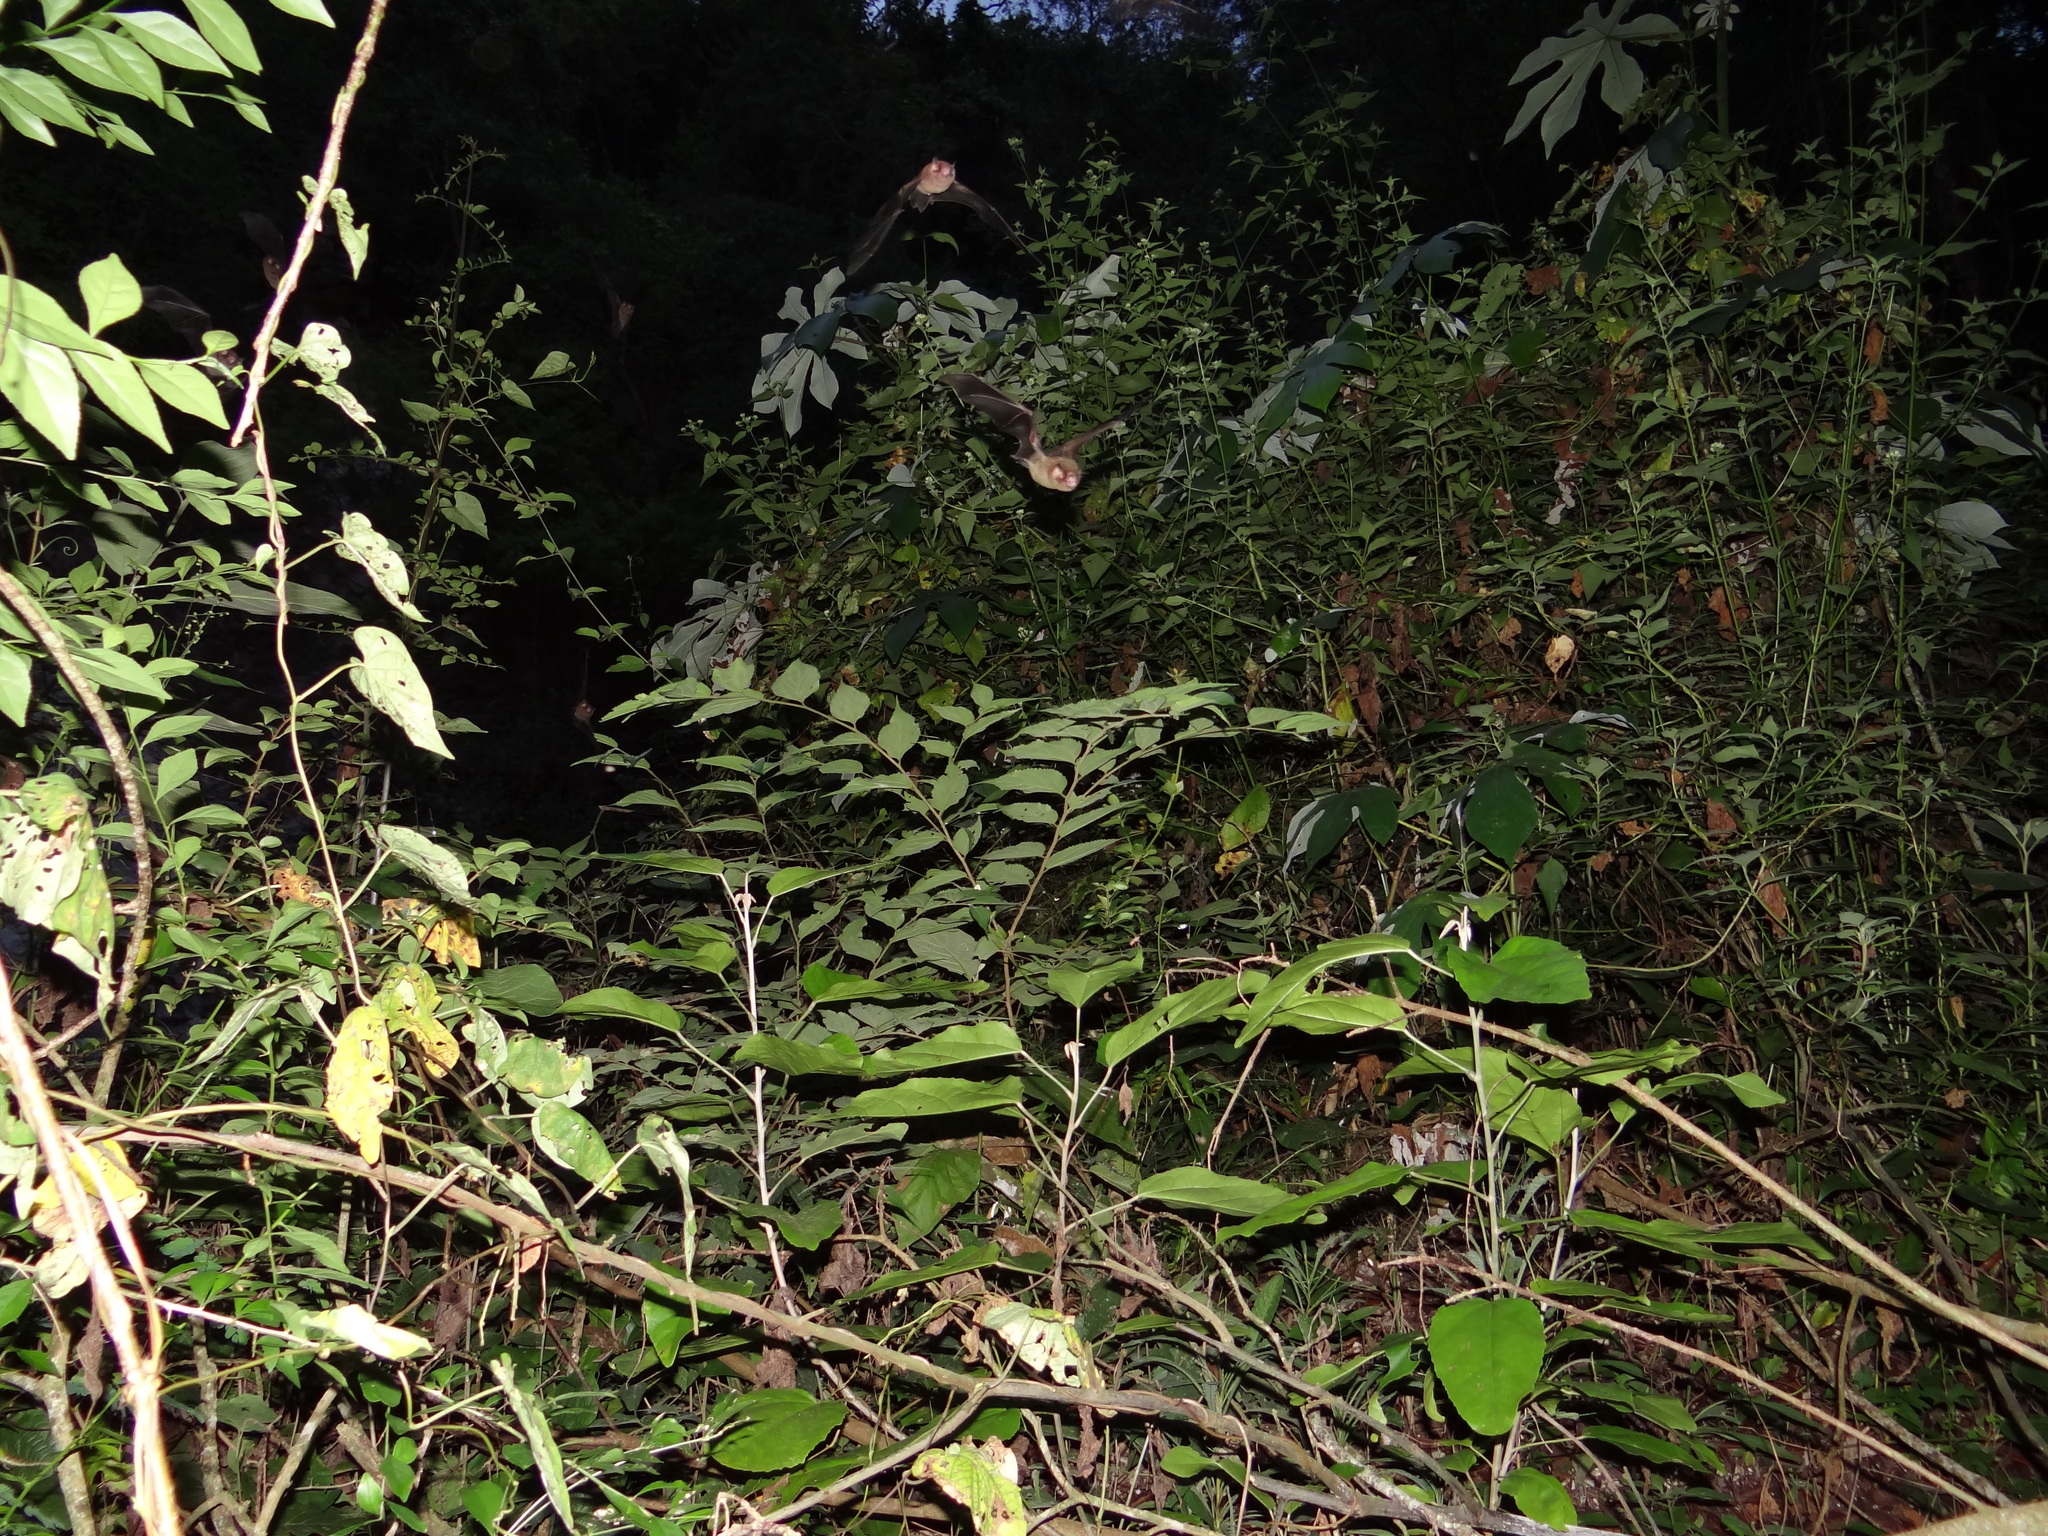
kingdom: Animalia
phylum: Chordata
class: Mammalia
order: Chiroptera
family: Mormoopidae
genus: Pteronotus
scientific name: Pteronotus mesoamericanus
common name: Mesoamerican common mustached bat
